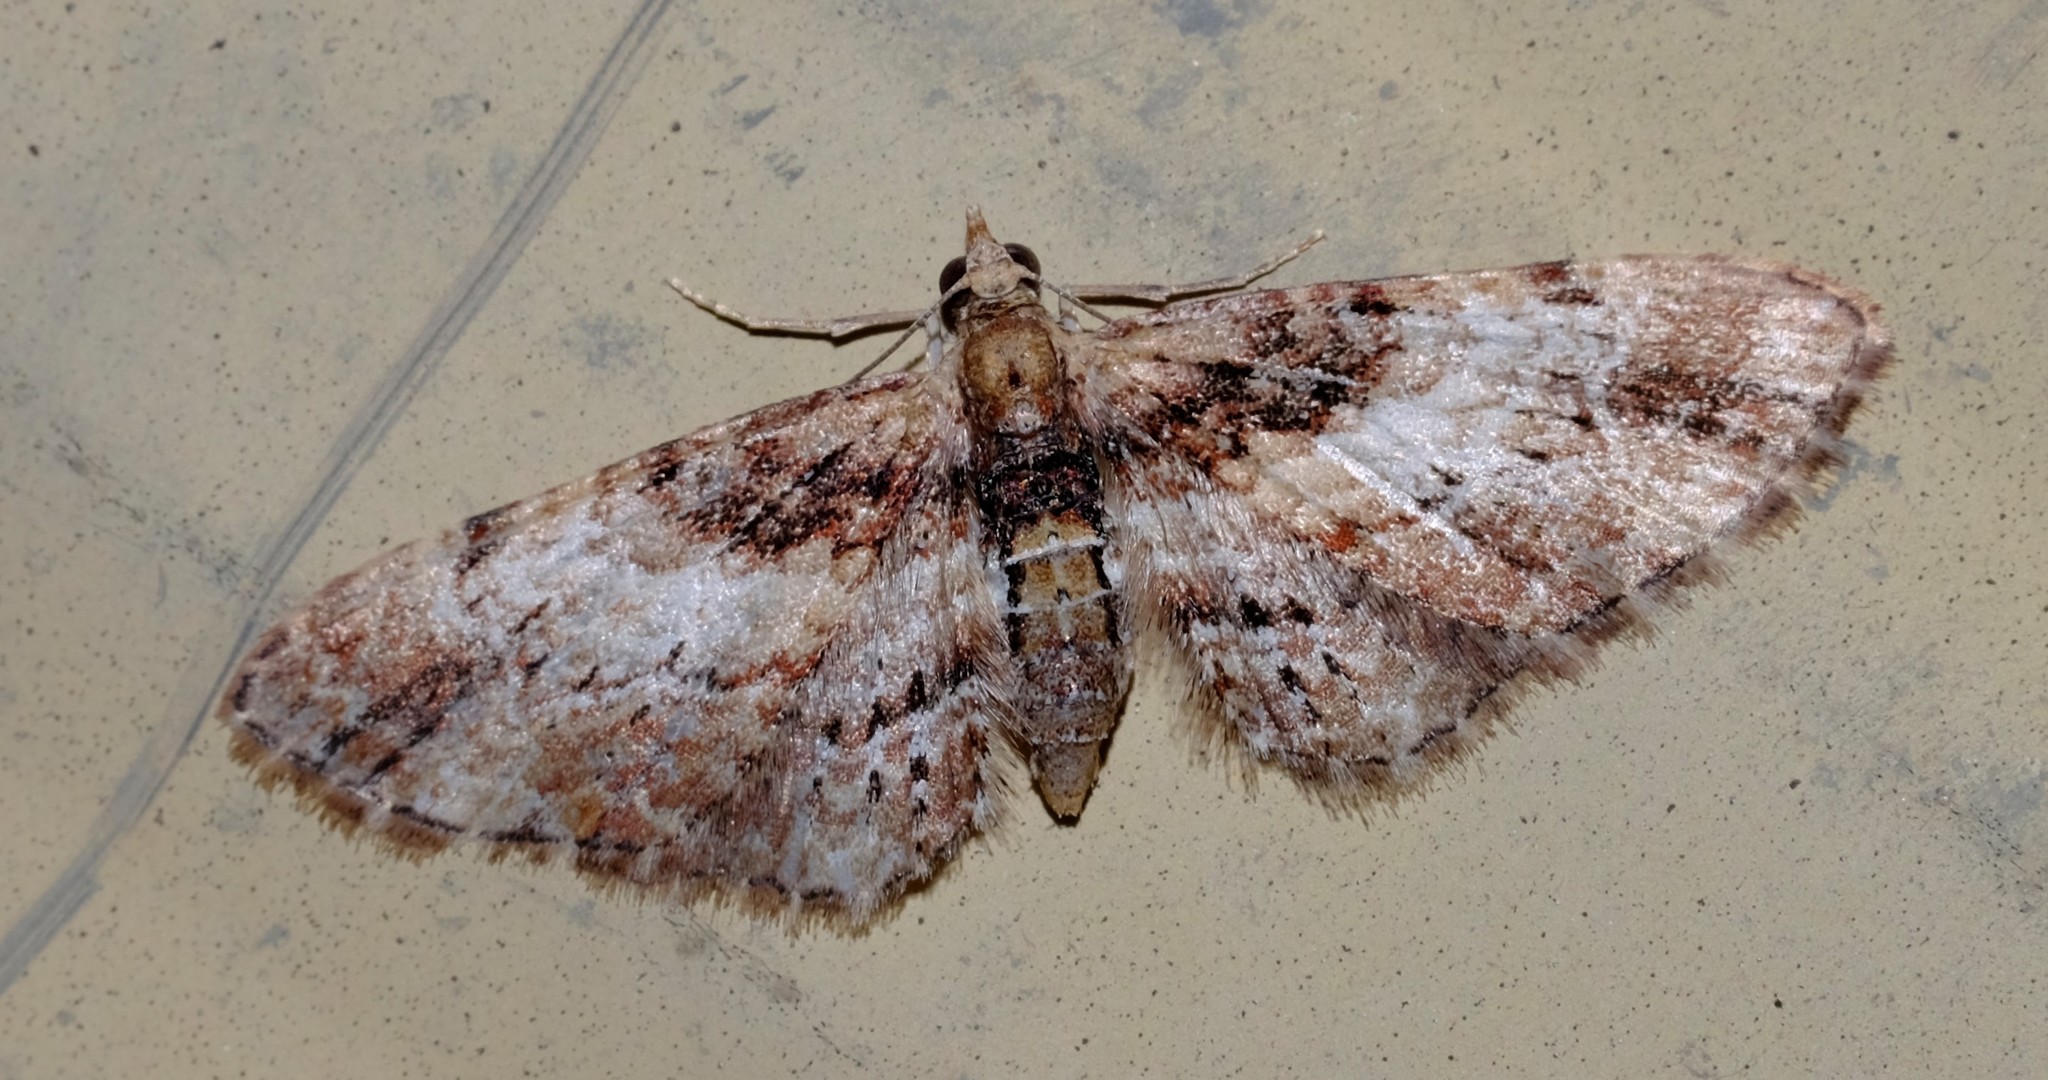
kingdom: Animalia
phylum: Arthropoda
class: Insecta
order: Lepidoptera
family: Geometridae
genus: Chloroclystis
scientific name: Chloroclystis approximata
